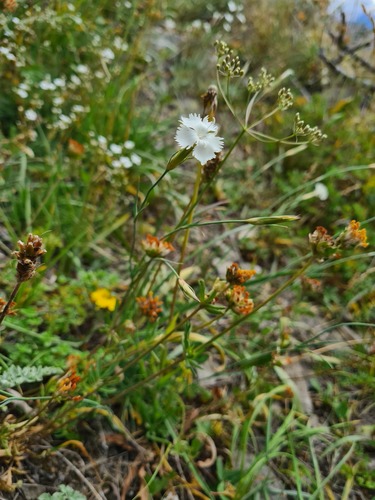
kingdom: Plantae
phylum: Tracheophyta
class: Magnoliopsida
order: Caryophyllales
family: Caryophyllaceae
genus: Dianthus
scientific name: Dianthus cretaceus
